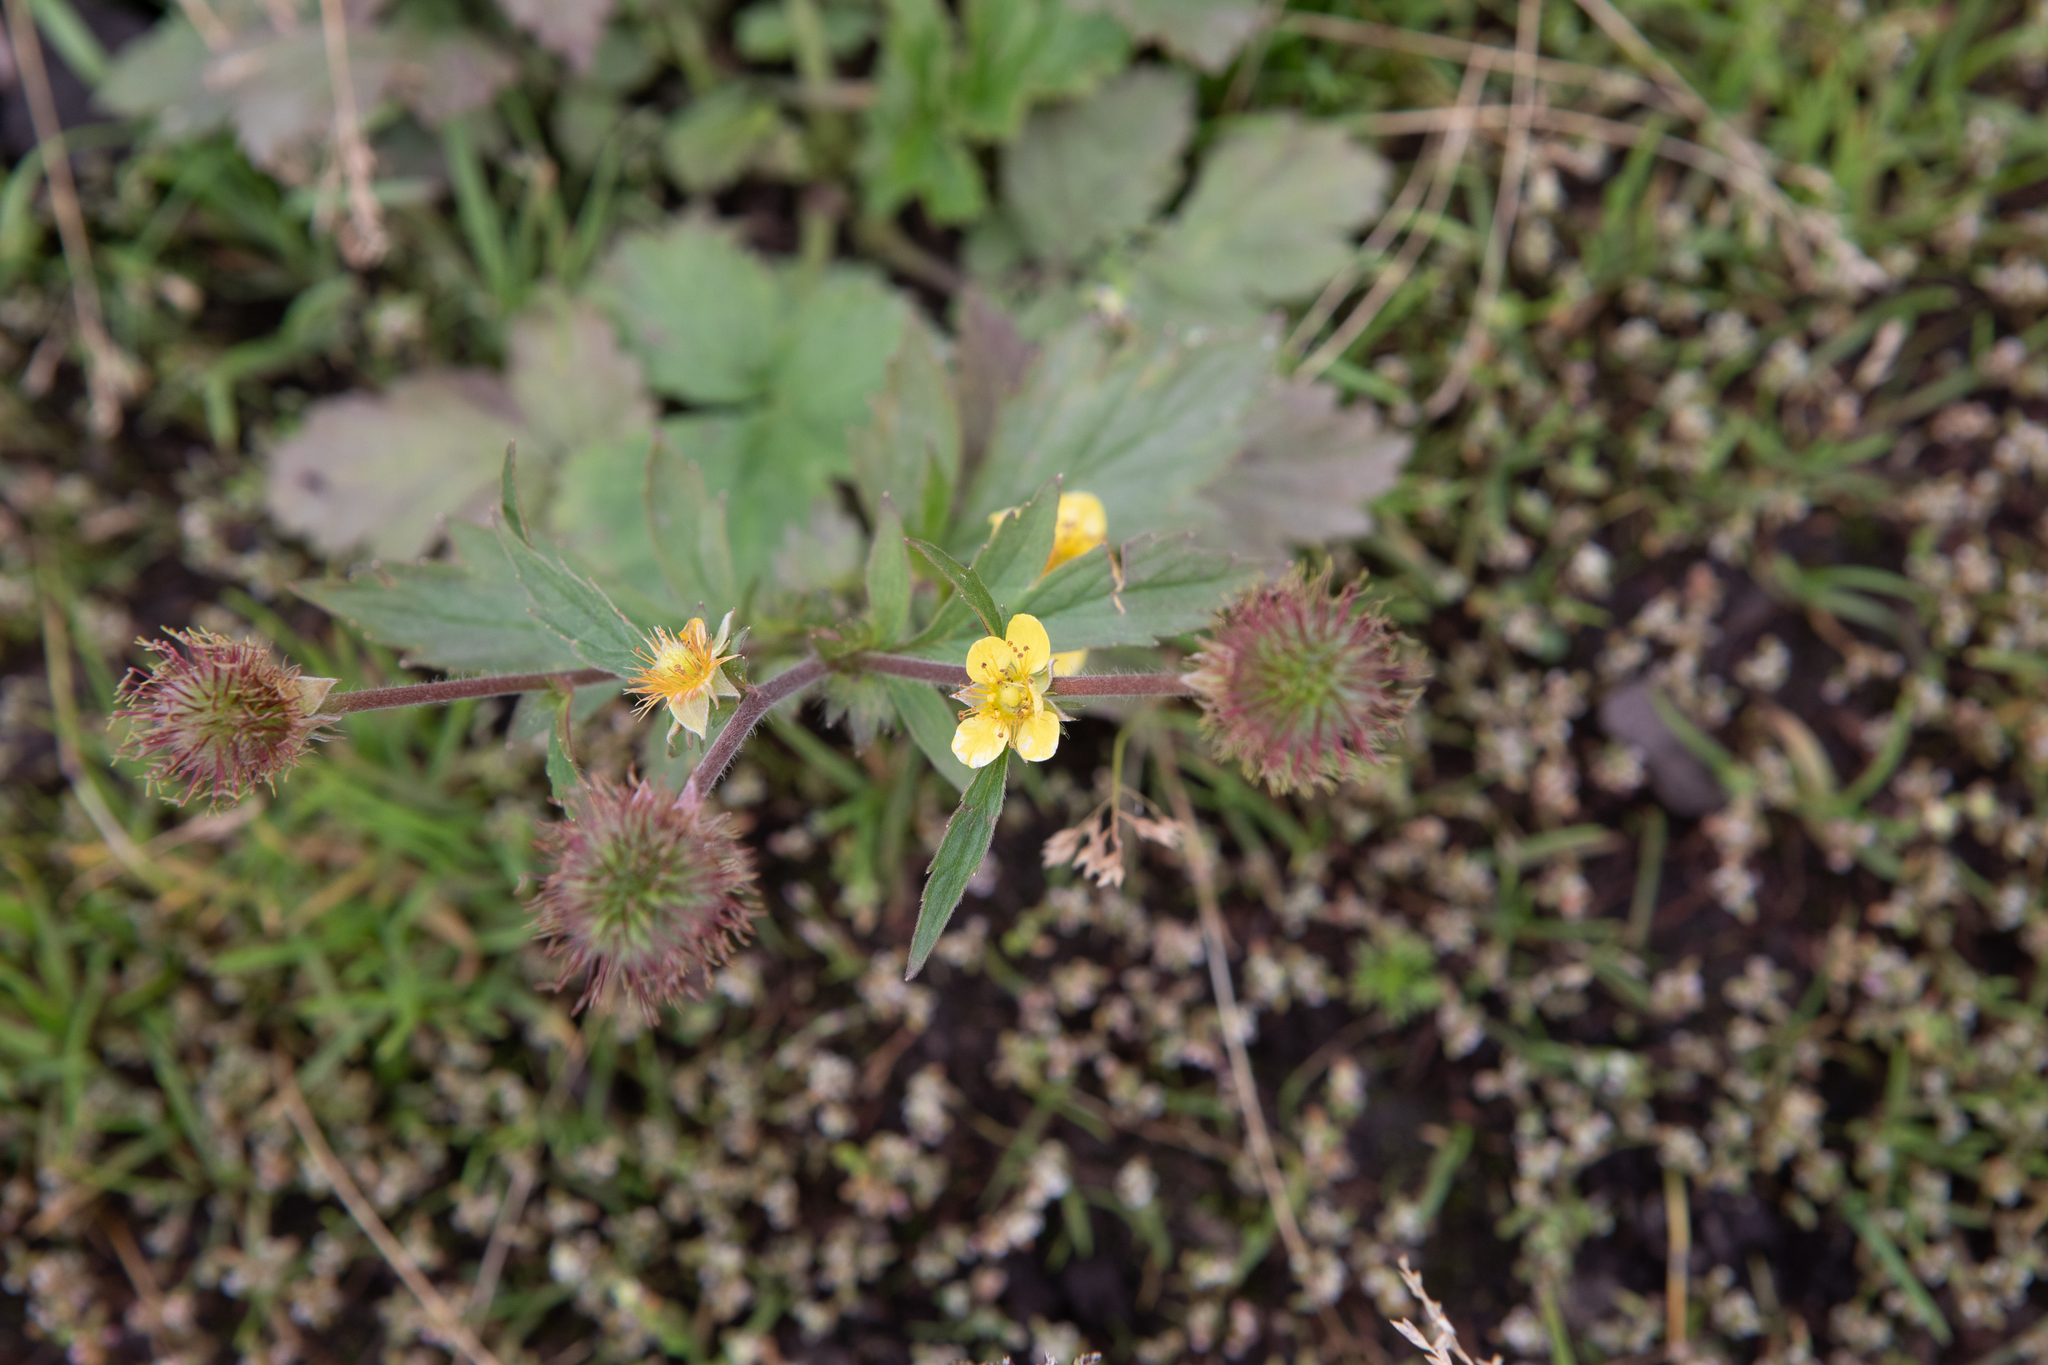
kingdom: Plantae
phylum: Tracheophyta
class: Magnoliopsida
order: Rosales
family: Rosaceae
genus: Geum
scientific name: Geum aleppicum
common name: Yellow avens
